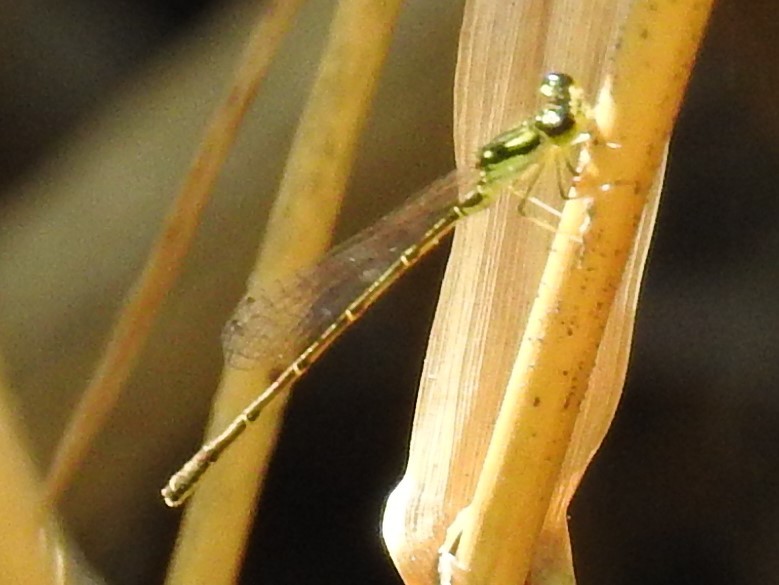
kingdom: Animalia
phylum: Arthropoda
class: Insecta
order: Odonata
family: Coenagrionidae
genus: Ischnura
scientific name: Ischnura posita
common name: Fragile forktail
